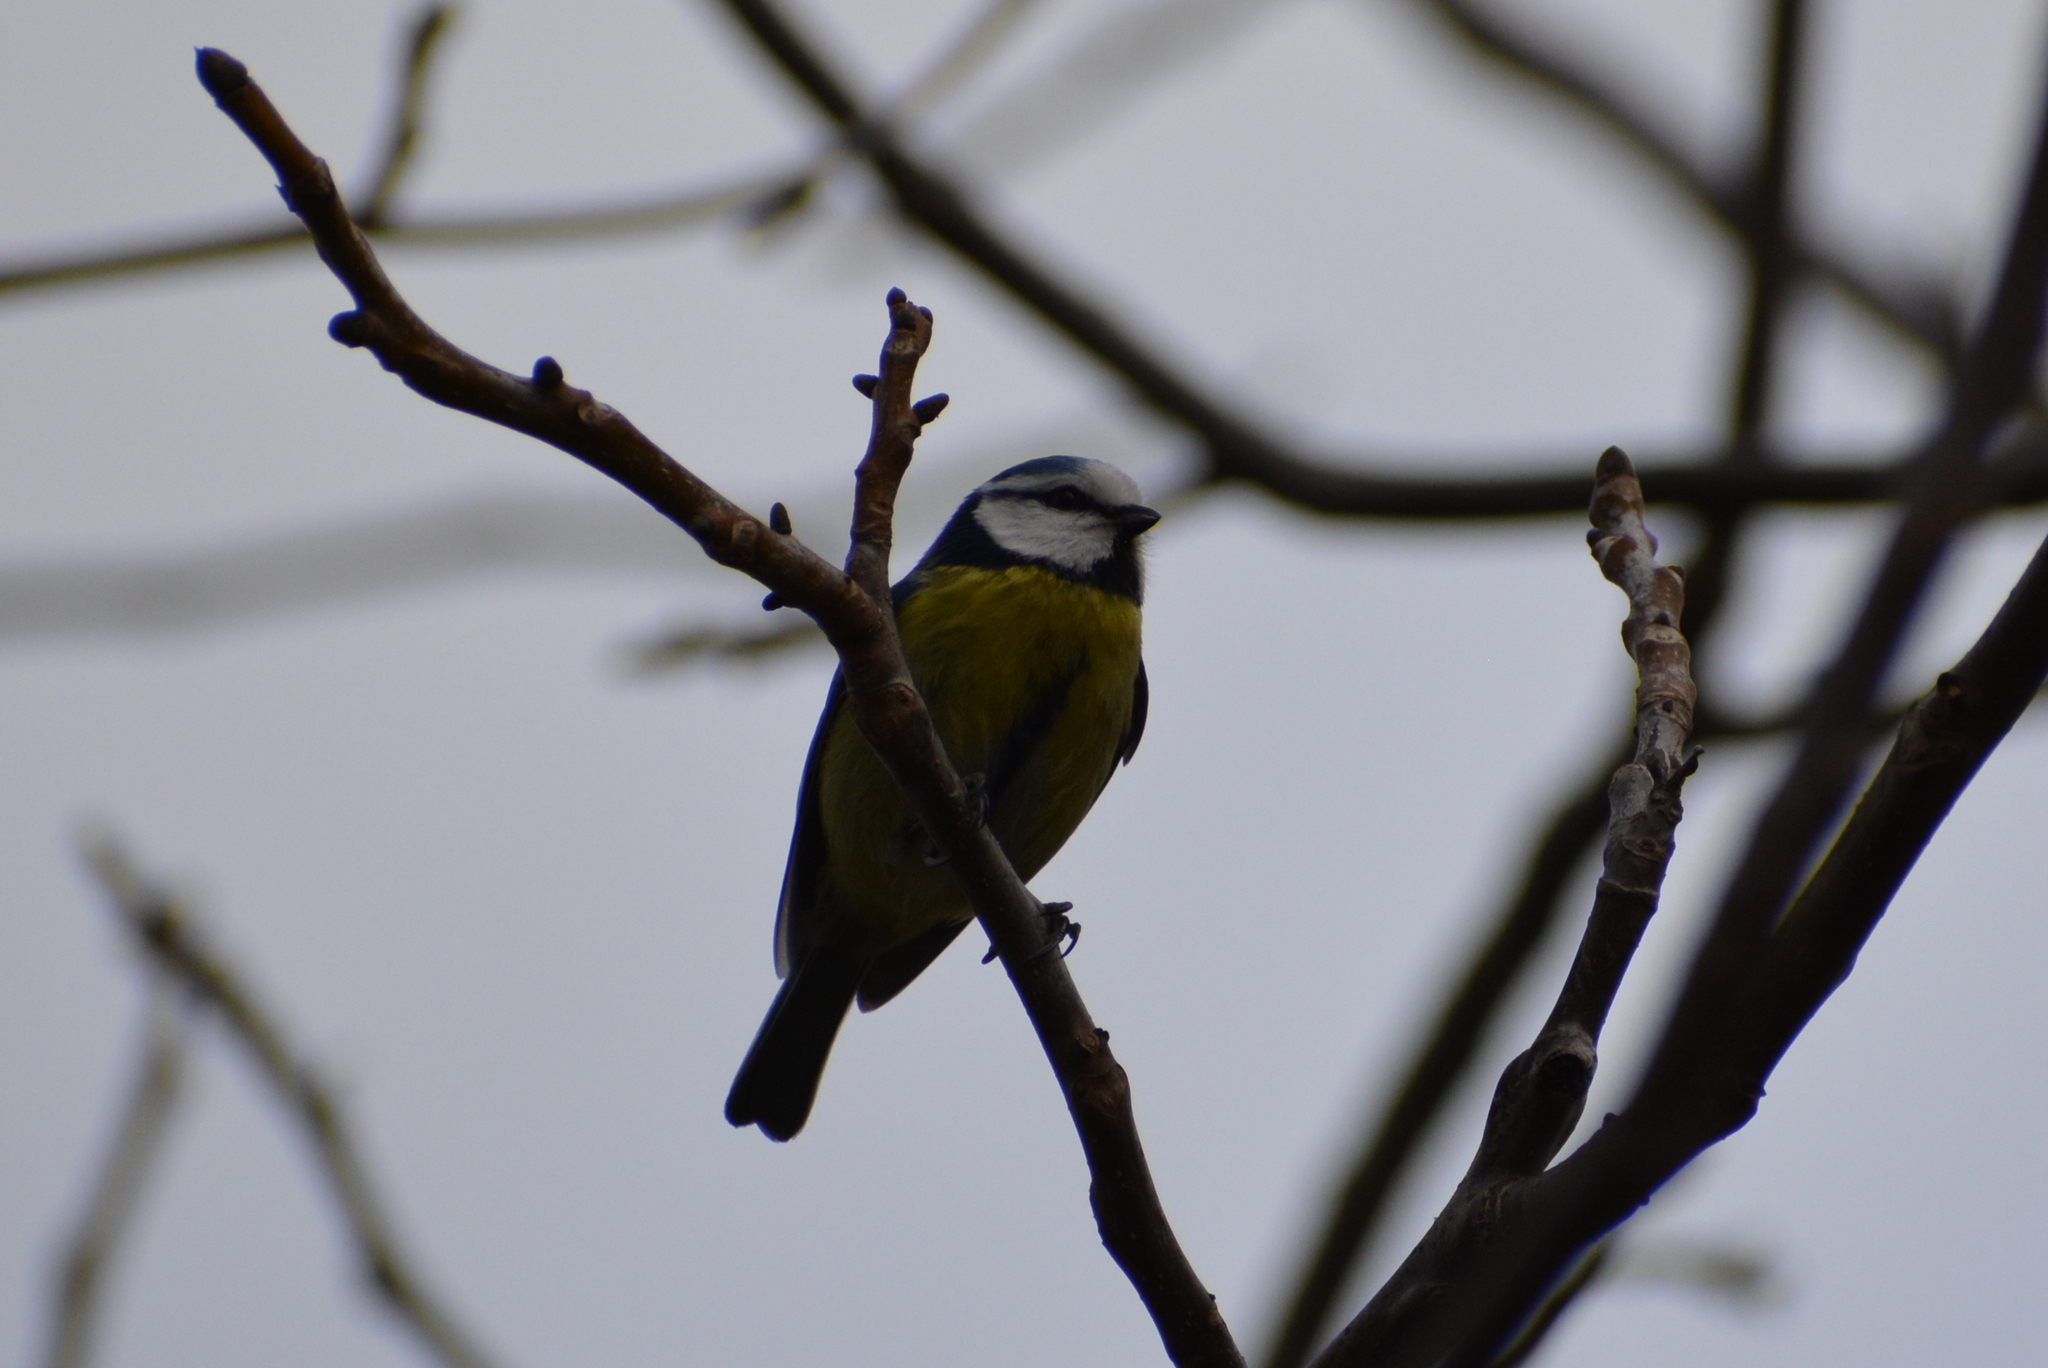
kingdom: Animalia
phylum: Chordata
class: Aves
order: Passeriformes
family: Paridae
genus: Cyanistes
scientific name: Cyanistes caeruleus
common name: Eurasian blue tit
